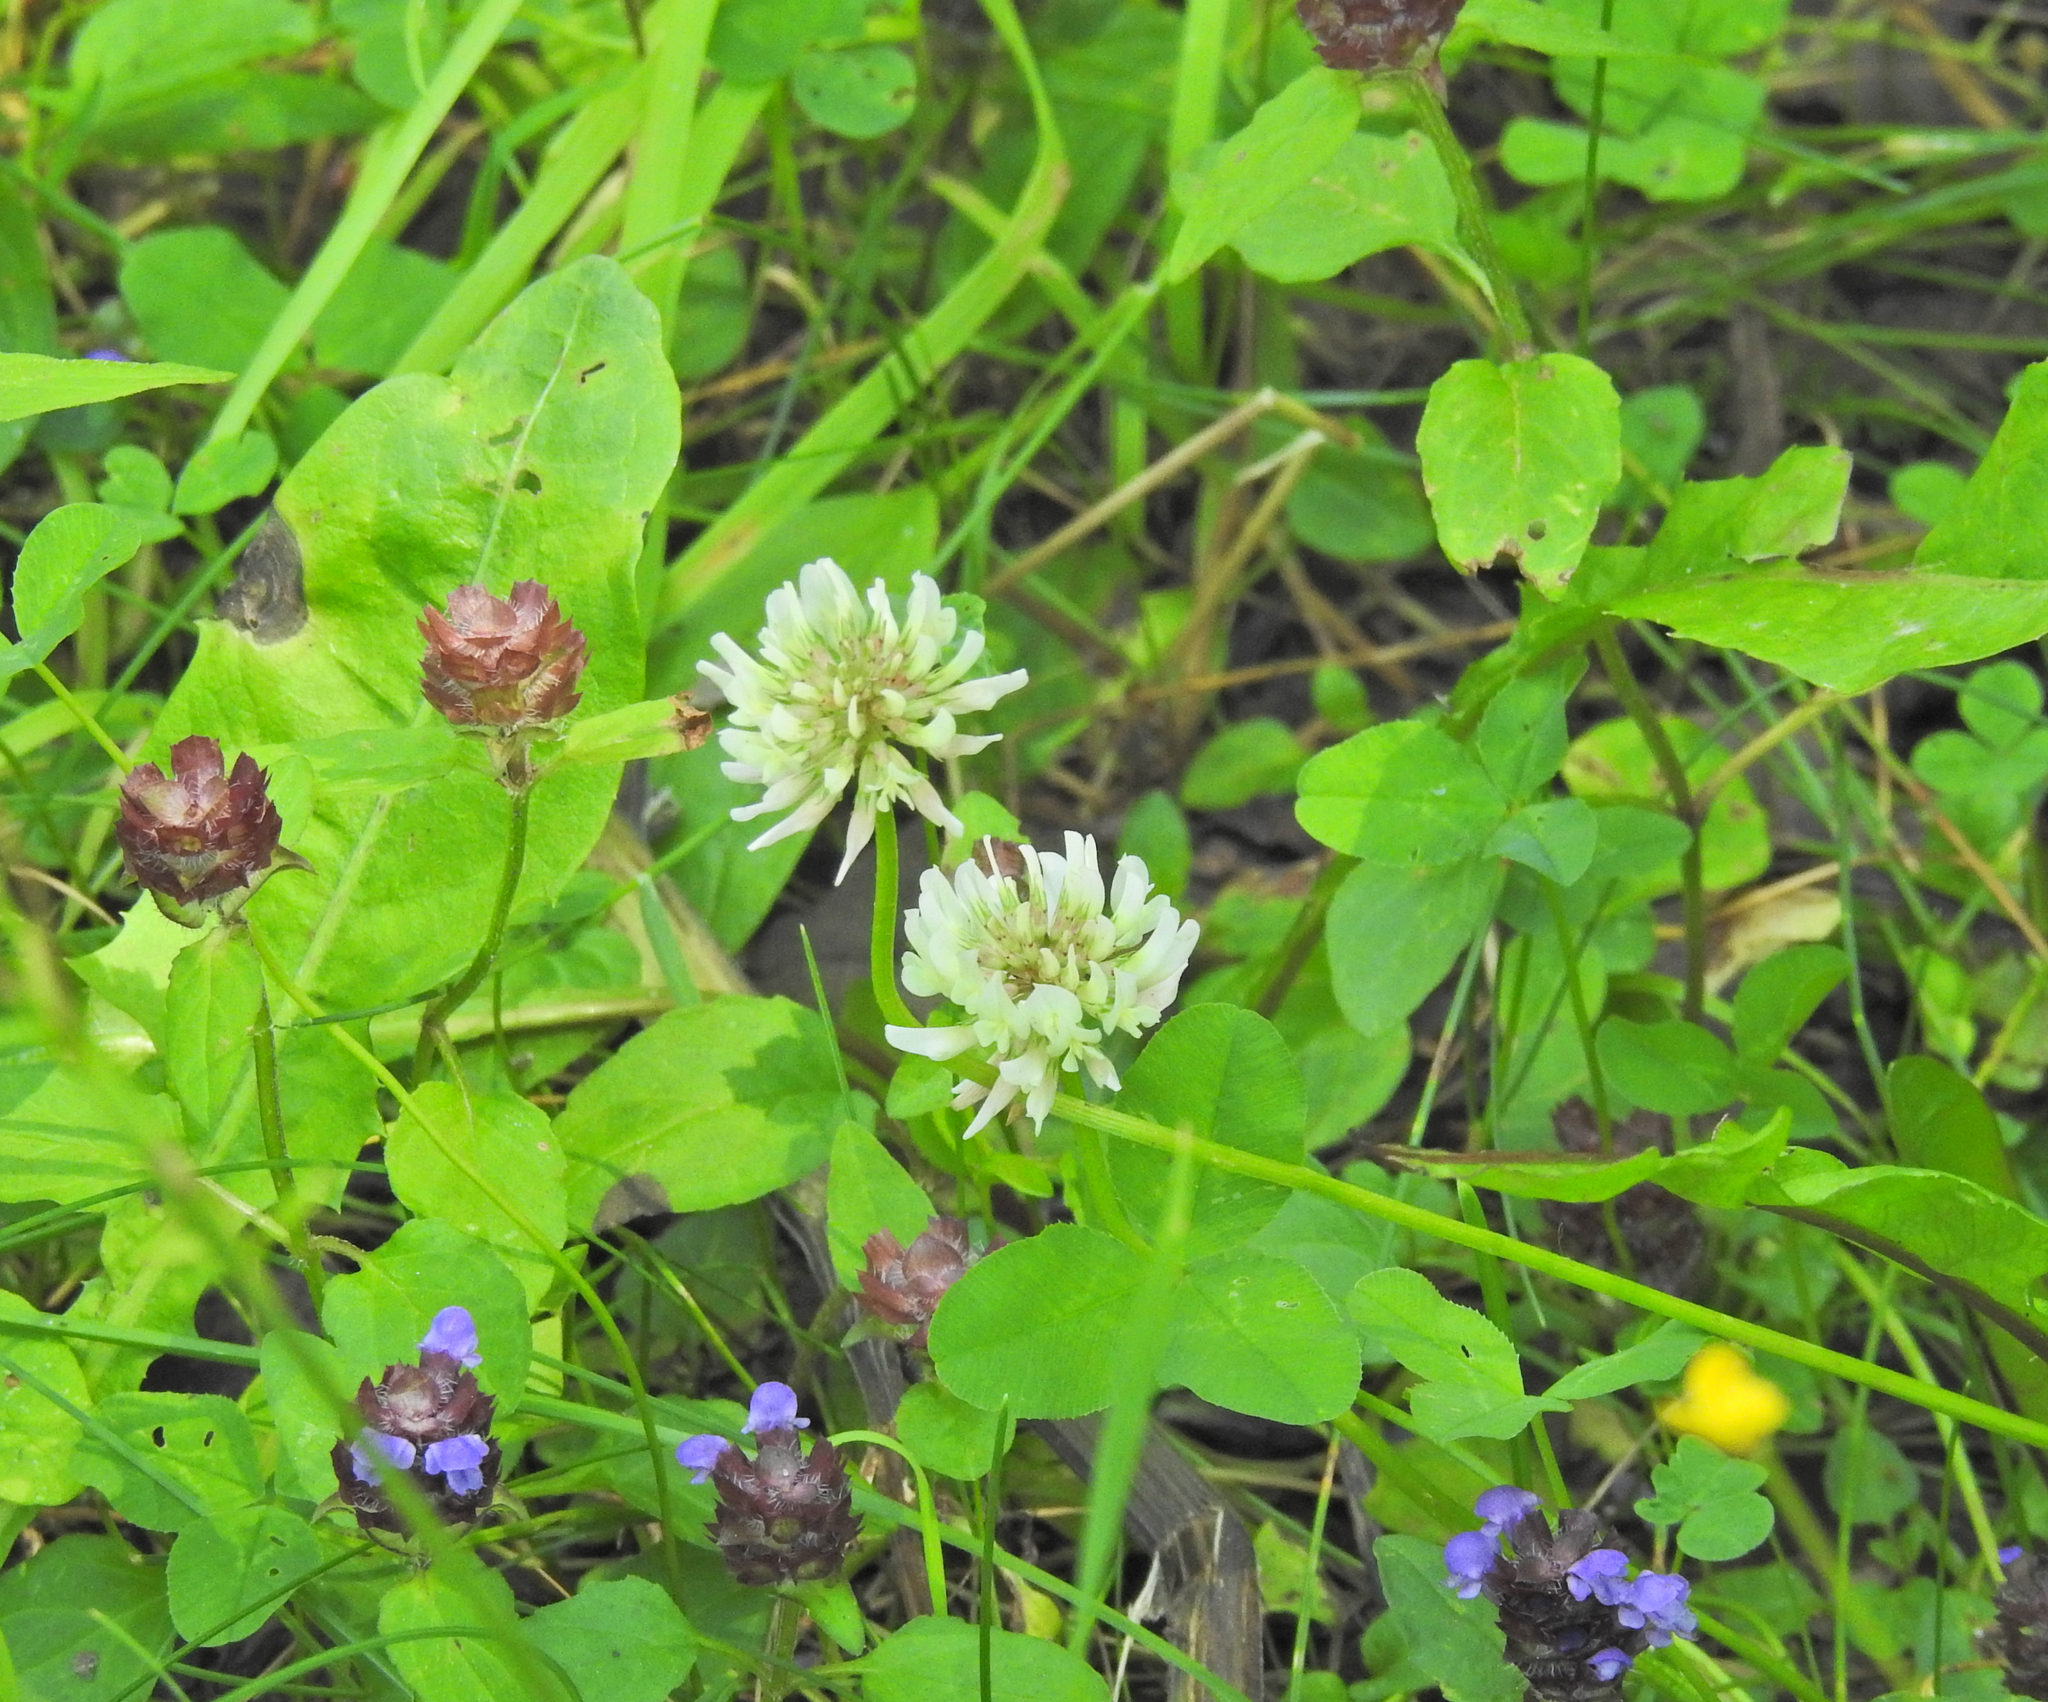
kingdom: Plantae
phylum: Tracheophyta
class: Magnoliopsida
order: Fabales
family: Fabaceae
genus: Trifolium
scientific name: Trifolium repens
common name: White clover
